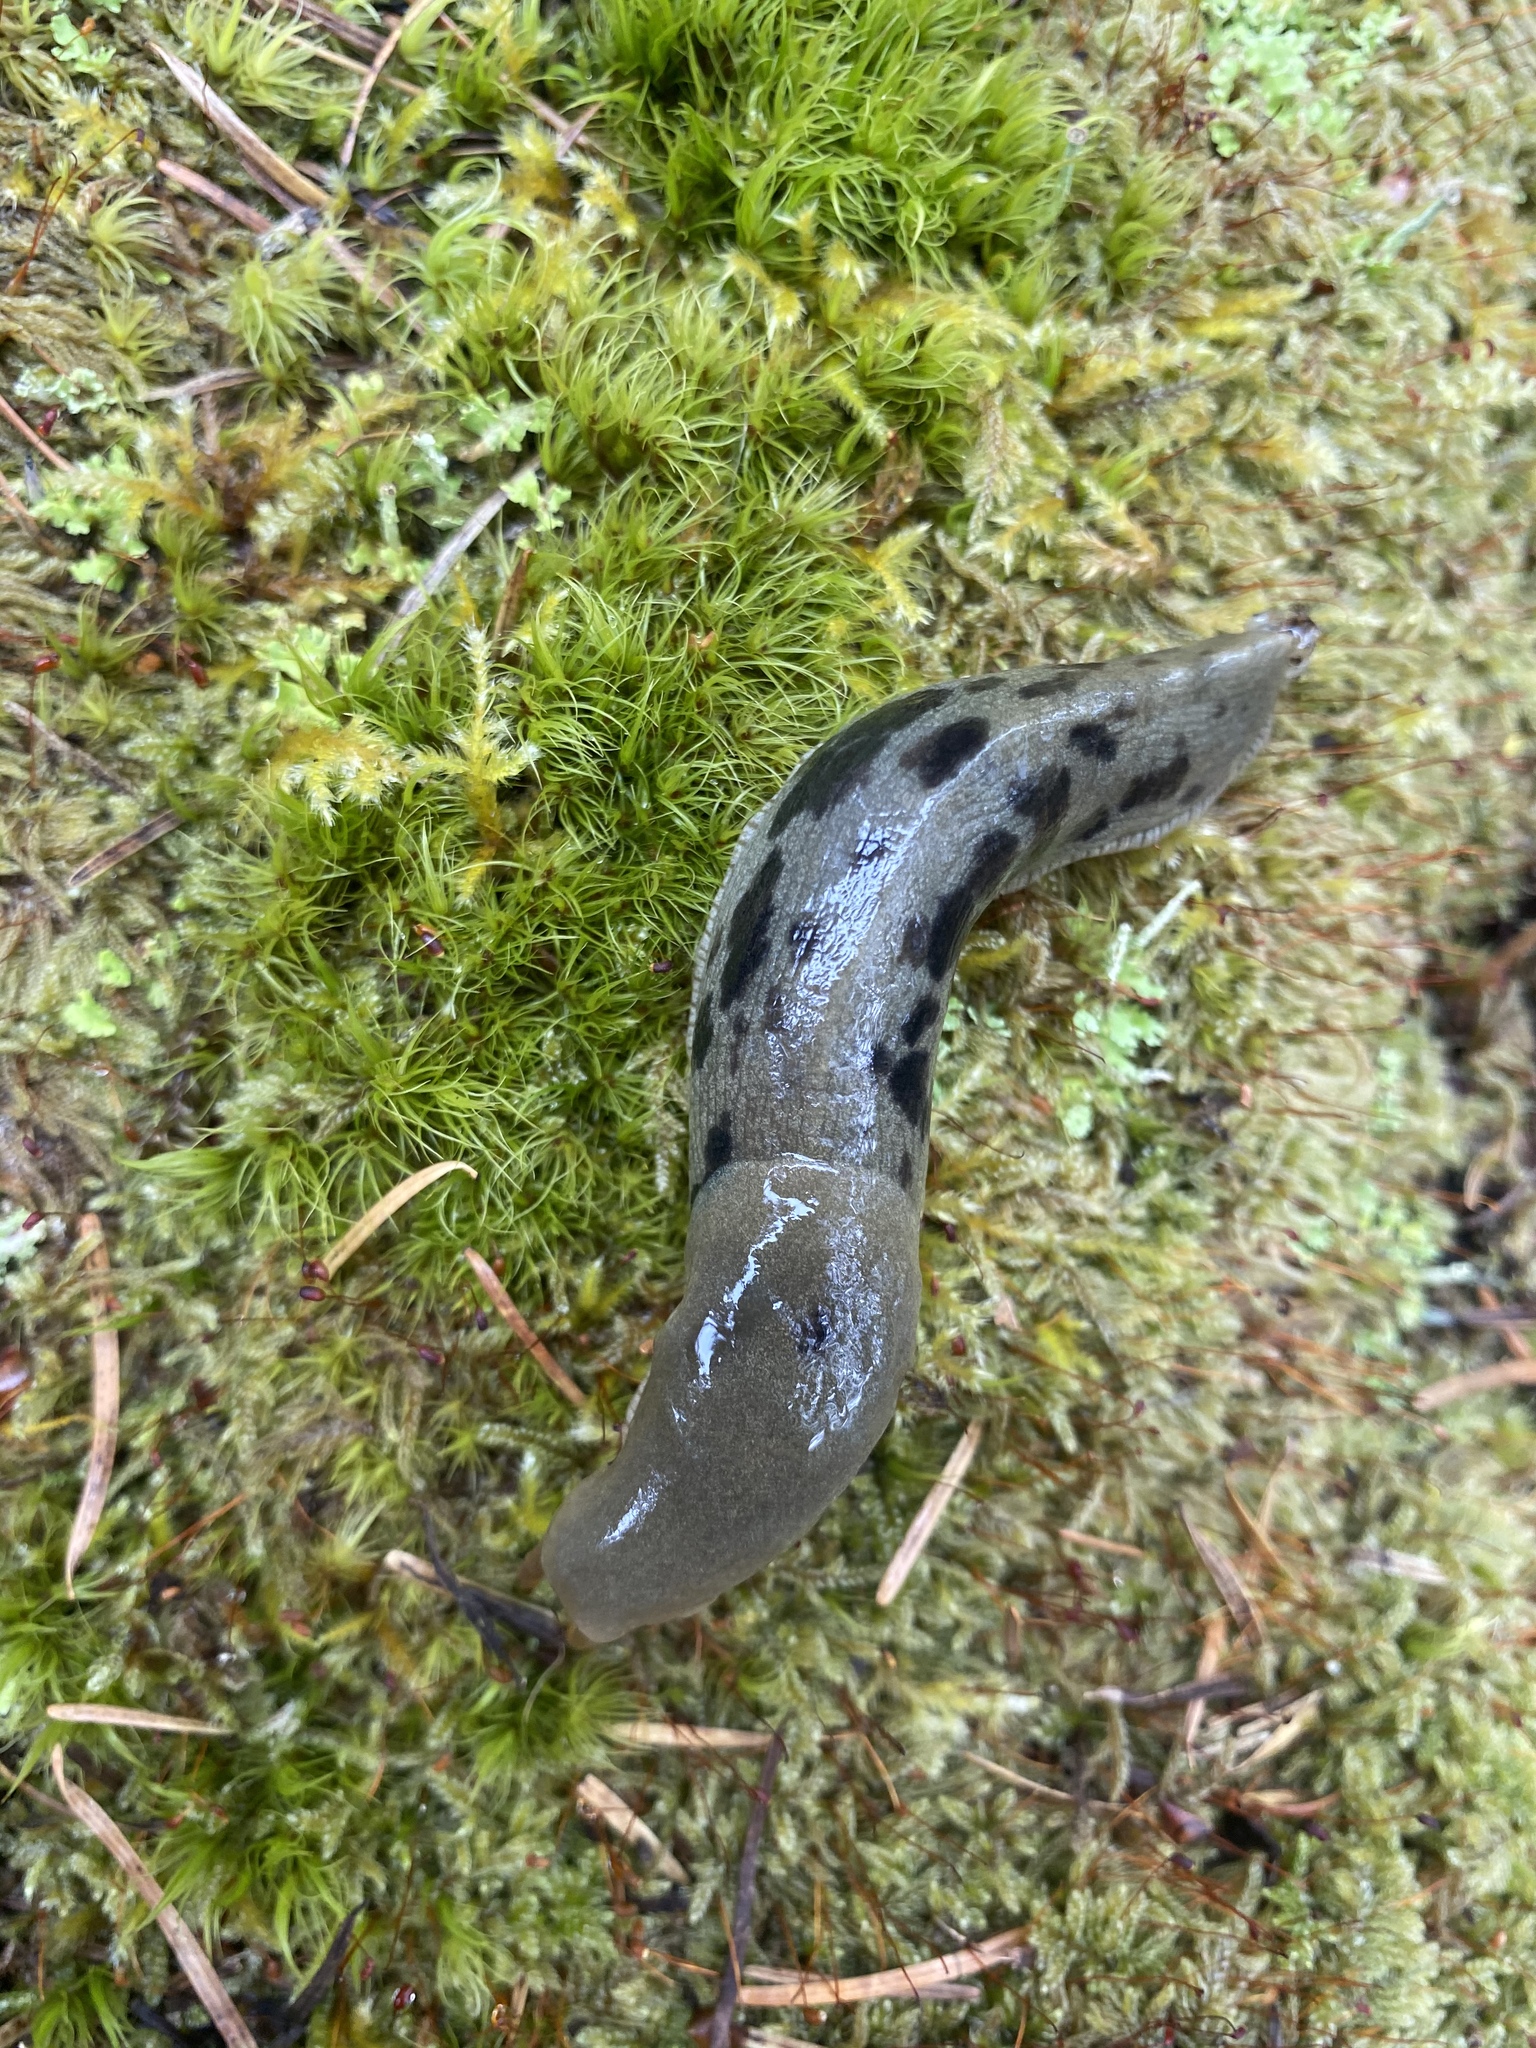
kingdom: Animalia
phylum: Mollusca
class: Gastropoda
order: Stylommatophora
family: Ariolimacidae
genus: Ariolimax
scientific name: Ariolimax columbianus
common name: Pacific banana slug
